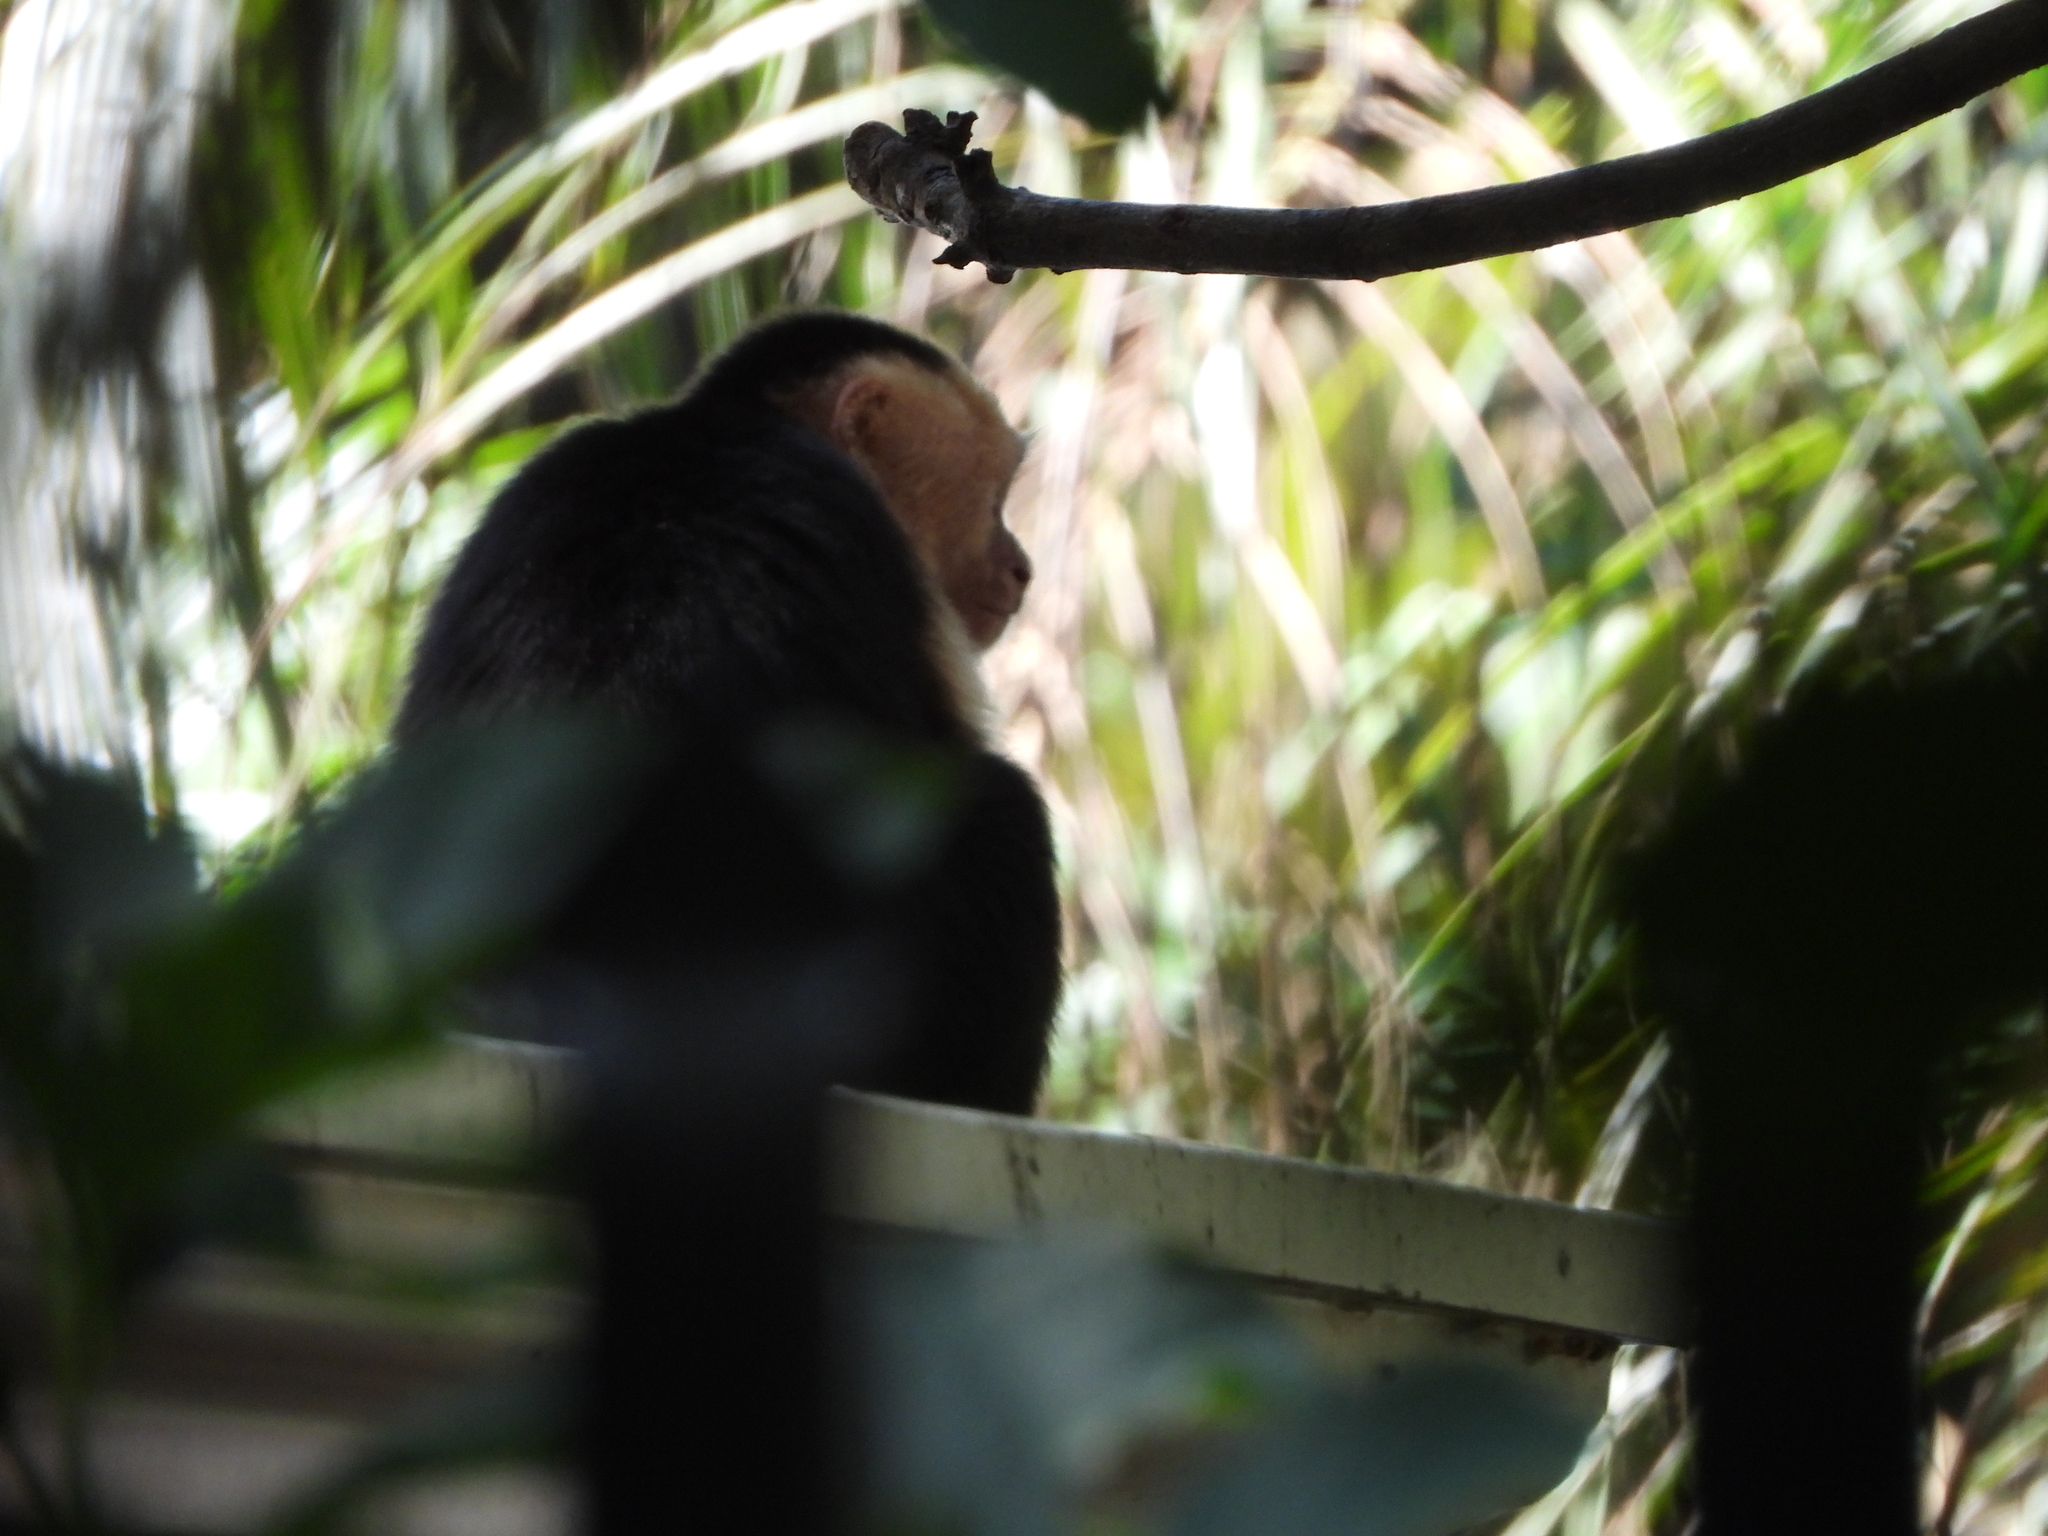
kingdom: Animalia
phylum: Chordata
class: Mammalia
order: Primates
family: Cebidae
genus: Cebus
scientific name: Cebus imitator
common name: Panamanian white-faced capuchin
